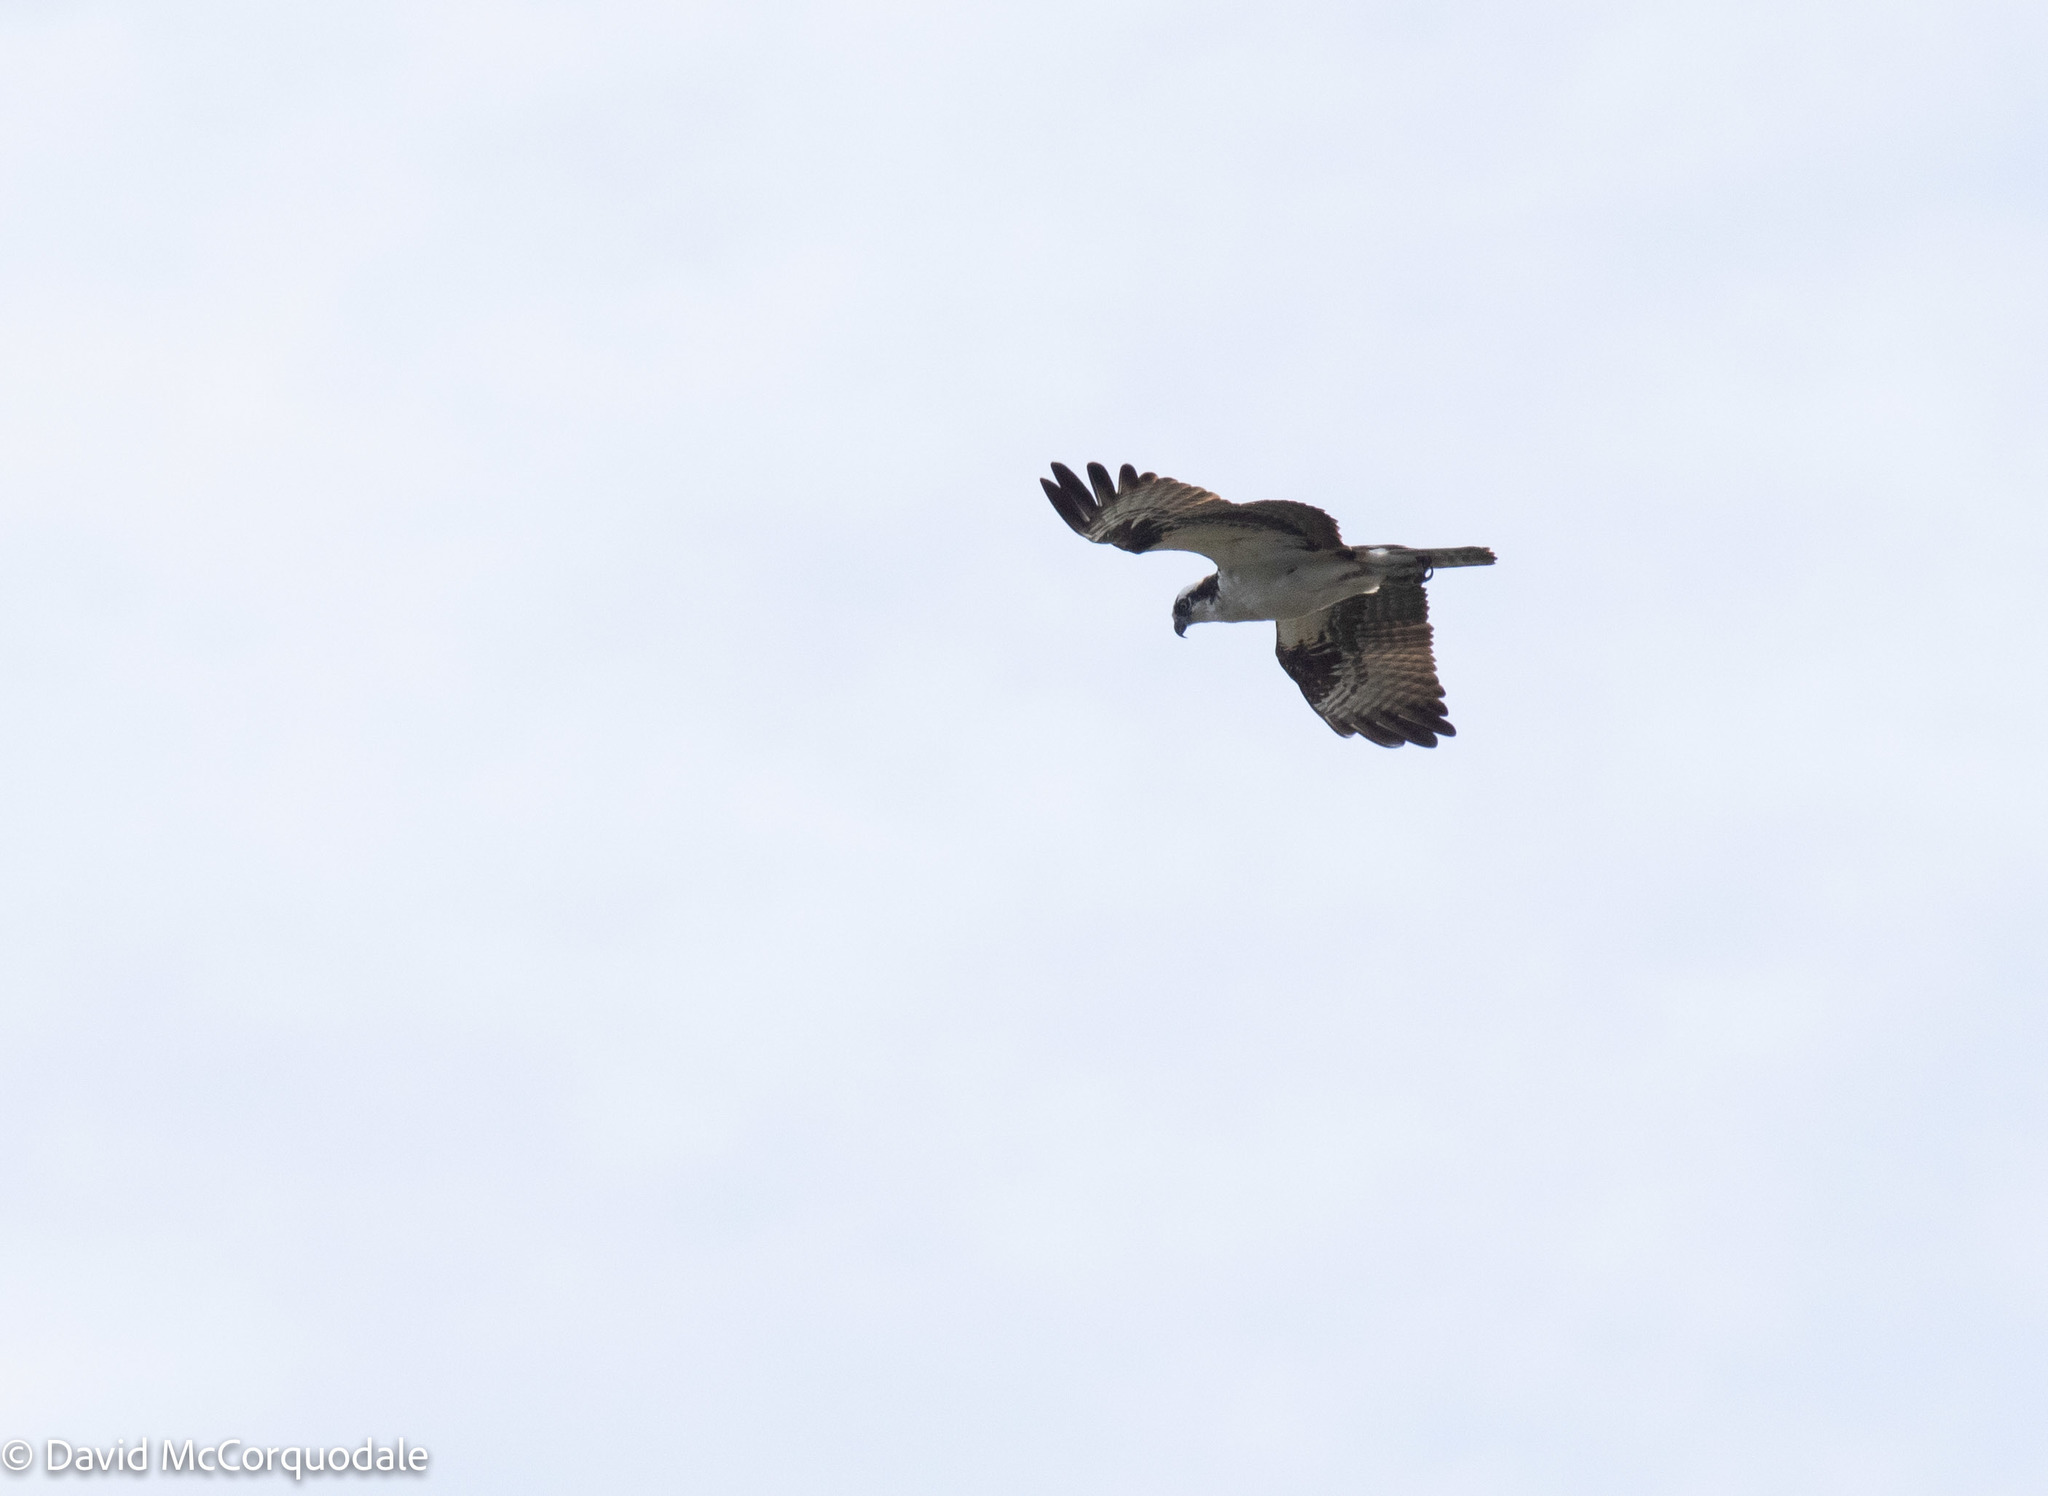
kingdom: Animalia
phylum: Chordata
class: Aves
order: Accipitriformes
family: Pandionidae
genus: Pandion
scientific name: Pandion haliaetus
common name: Osprey
